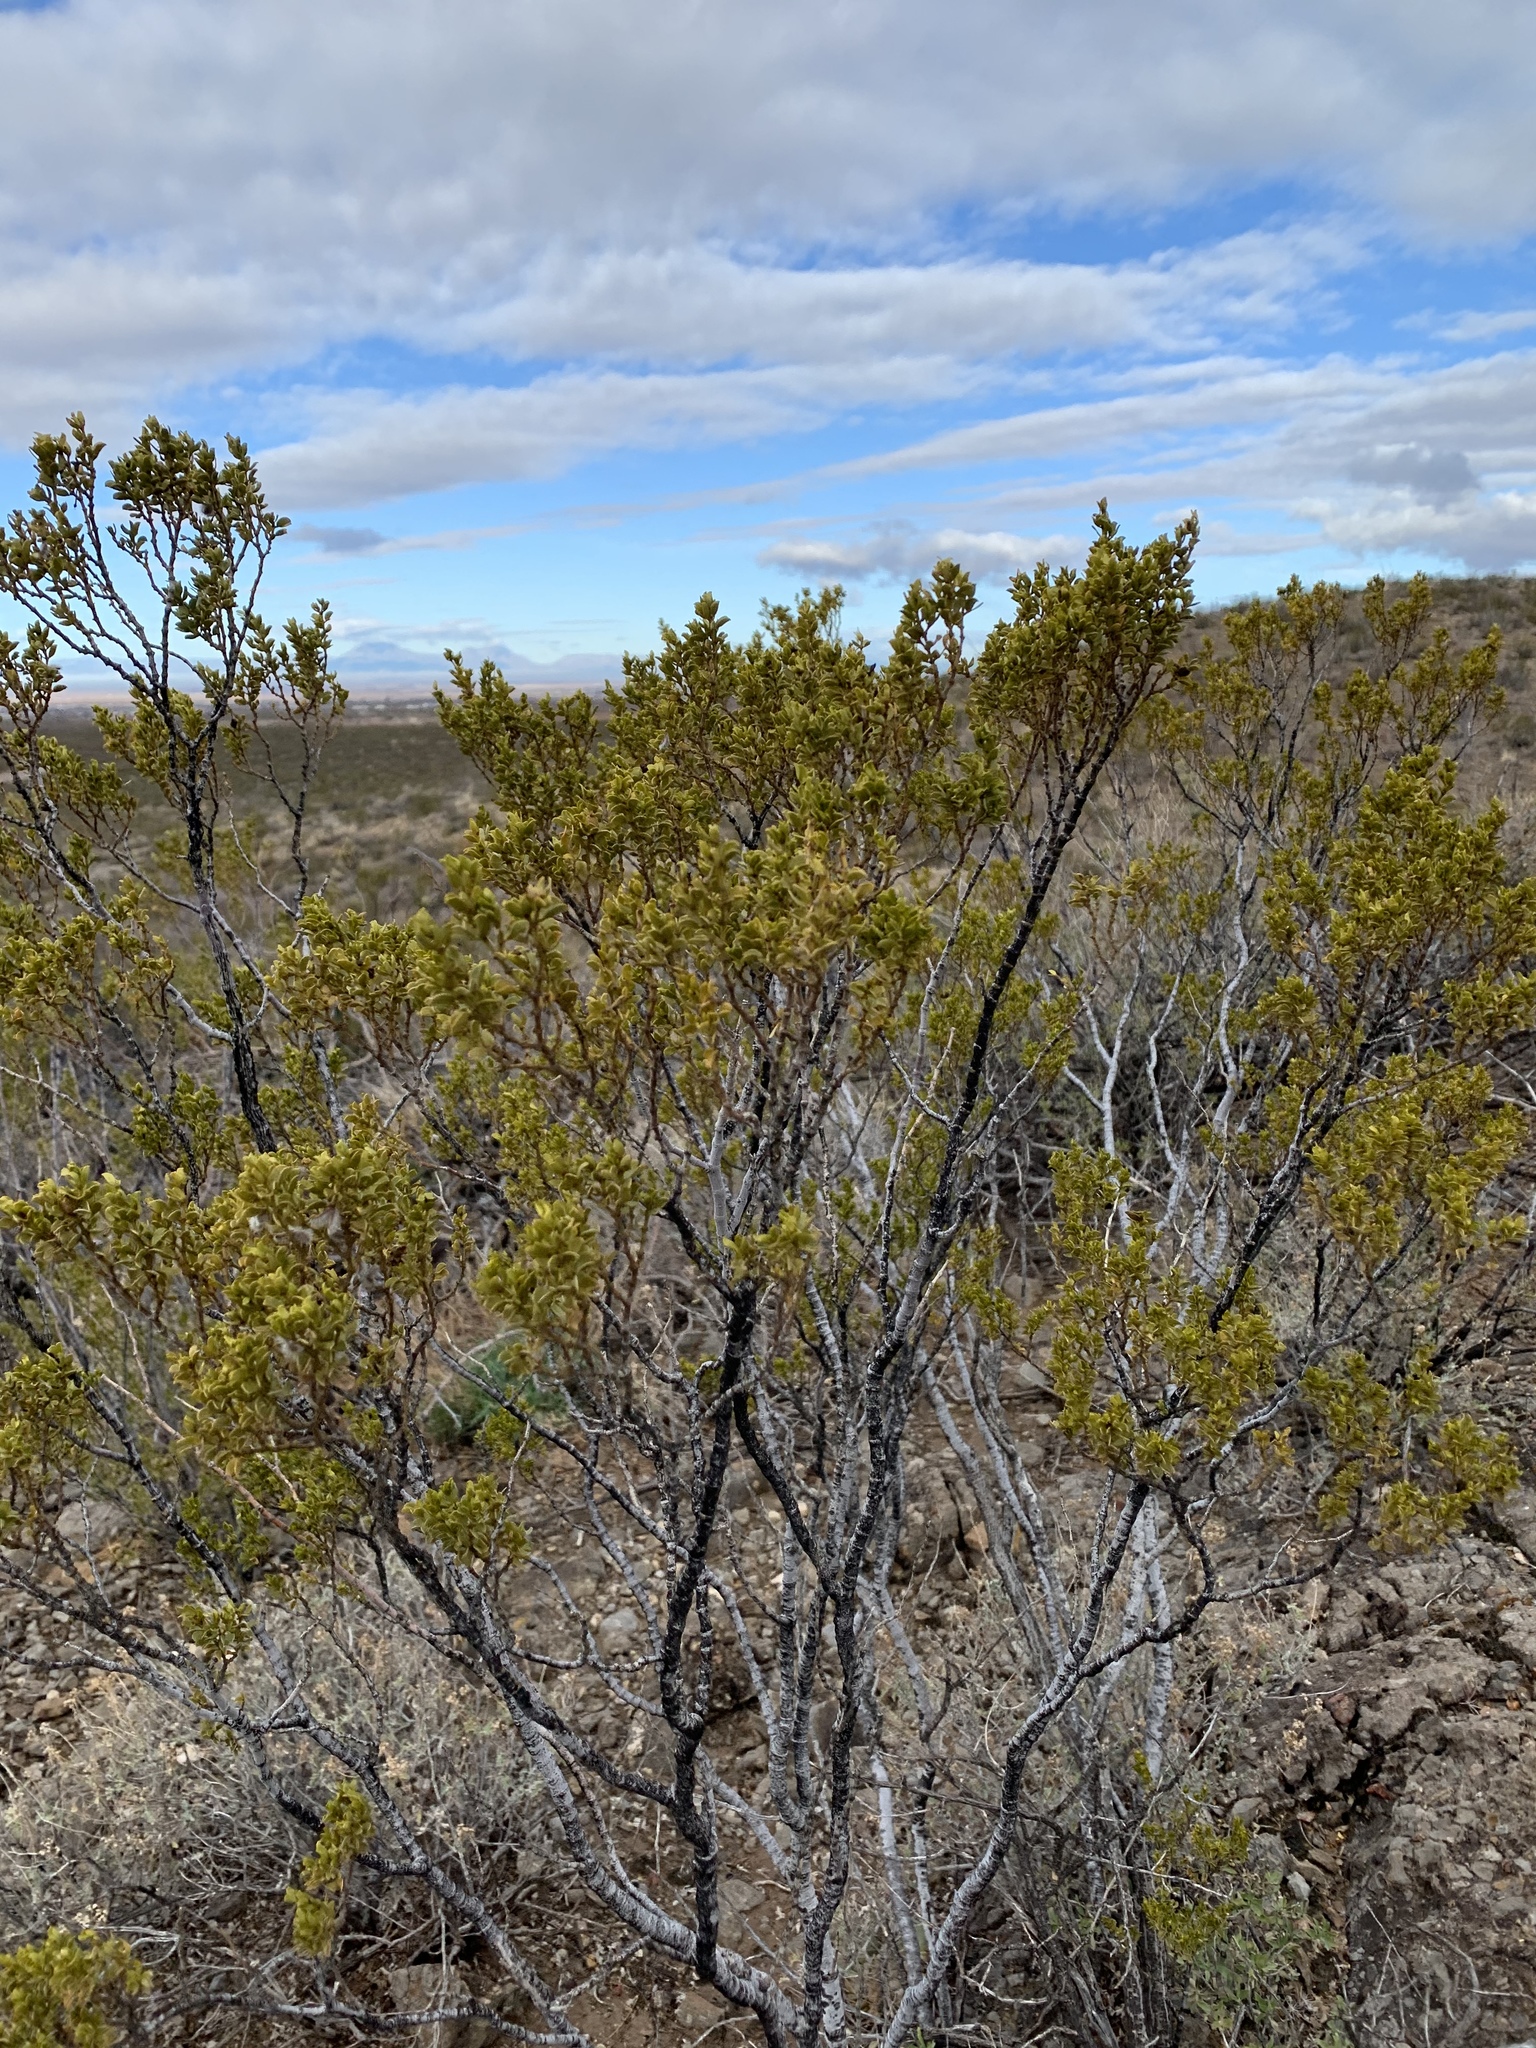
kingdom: Plantae
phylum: Tracheophyta
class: Magnoliopsida
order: Zygophyllales
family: Zygophyllaceae
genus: Larrea
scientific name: Larrea tridentata
